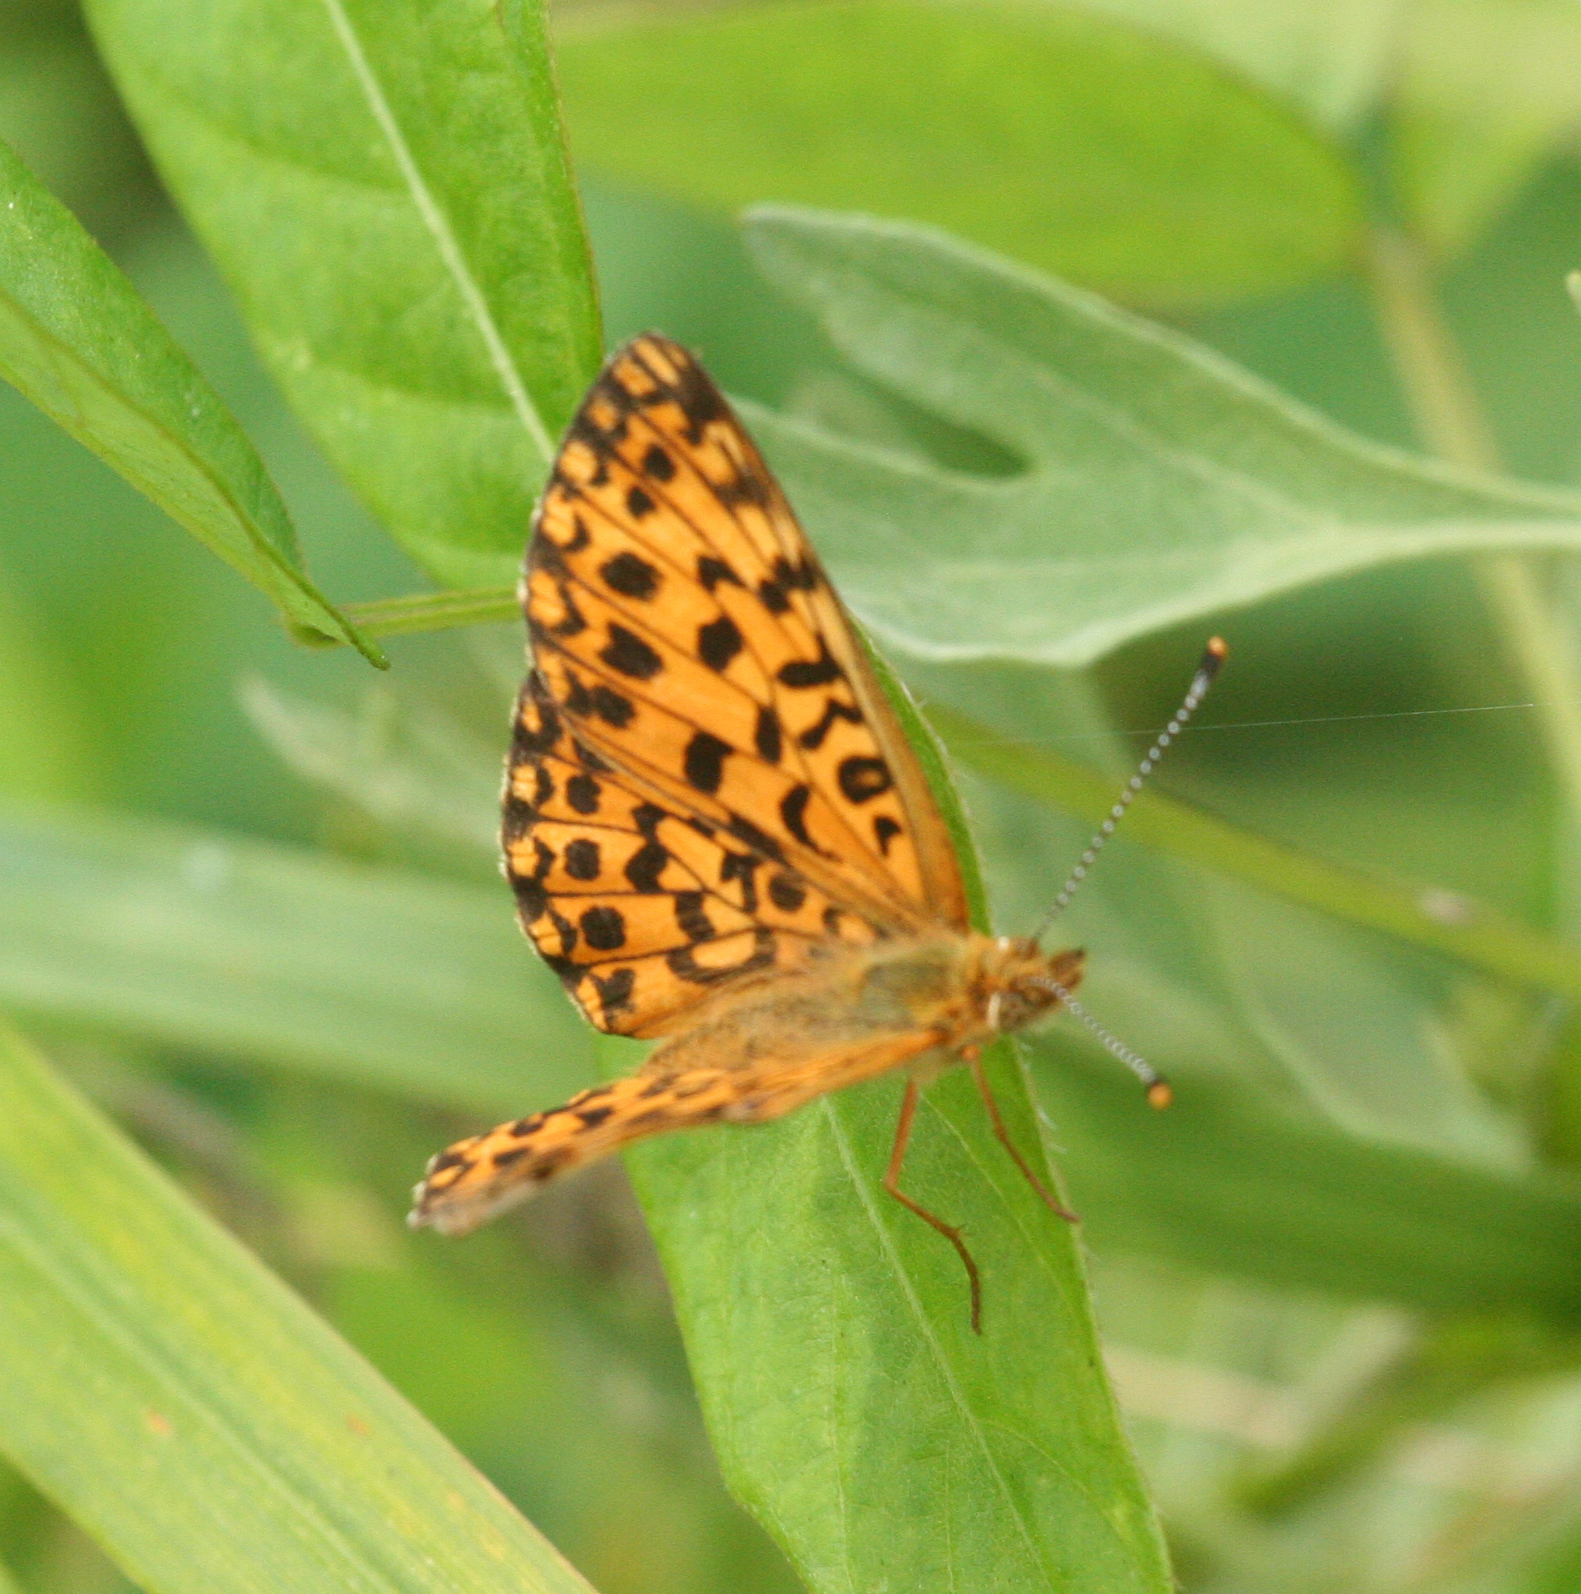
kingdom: Animalia
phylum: Arthropoda
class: Insecta
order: Lepidoptera
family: Nymphalidae
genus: Boloria
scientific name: Boloria perryi
